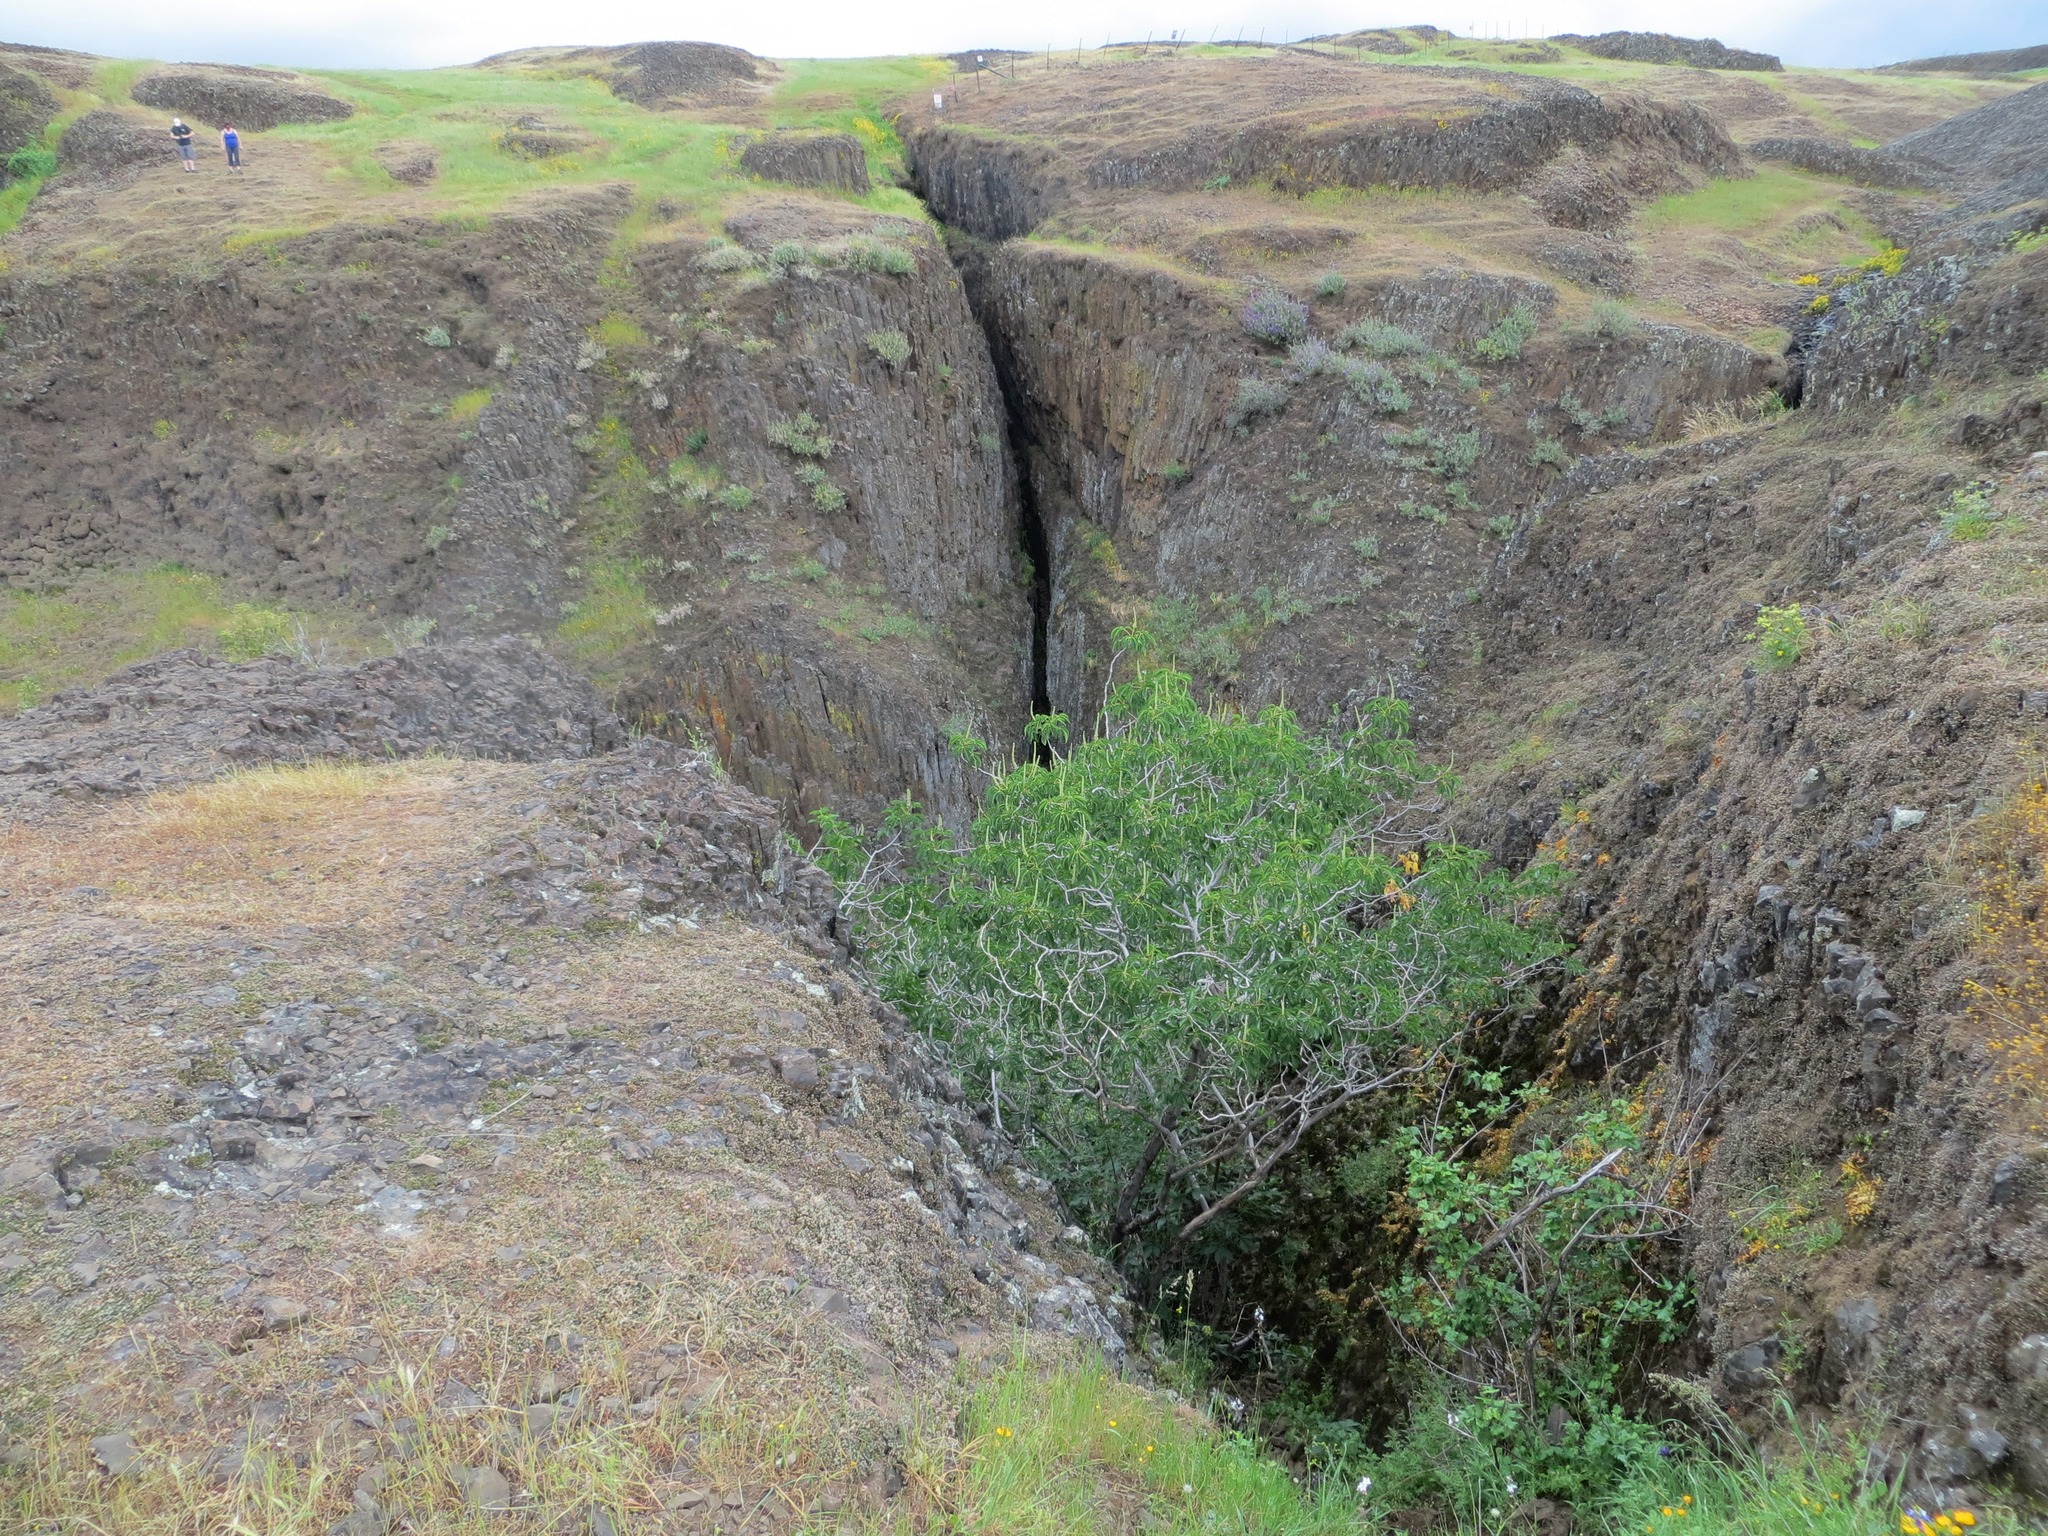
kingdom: Plantae
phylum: Tracheophyta
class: Magnoliopsida
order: Sapindales
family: Sapindaceae
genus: Aesculus
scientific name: Aesculus californica
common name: California buckeye
